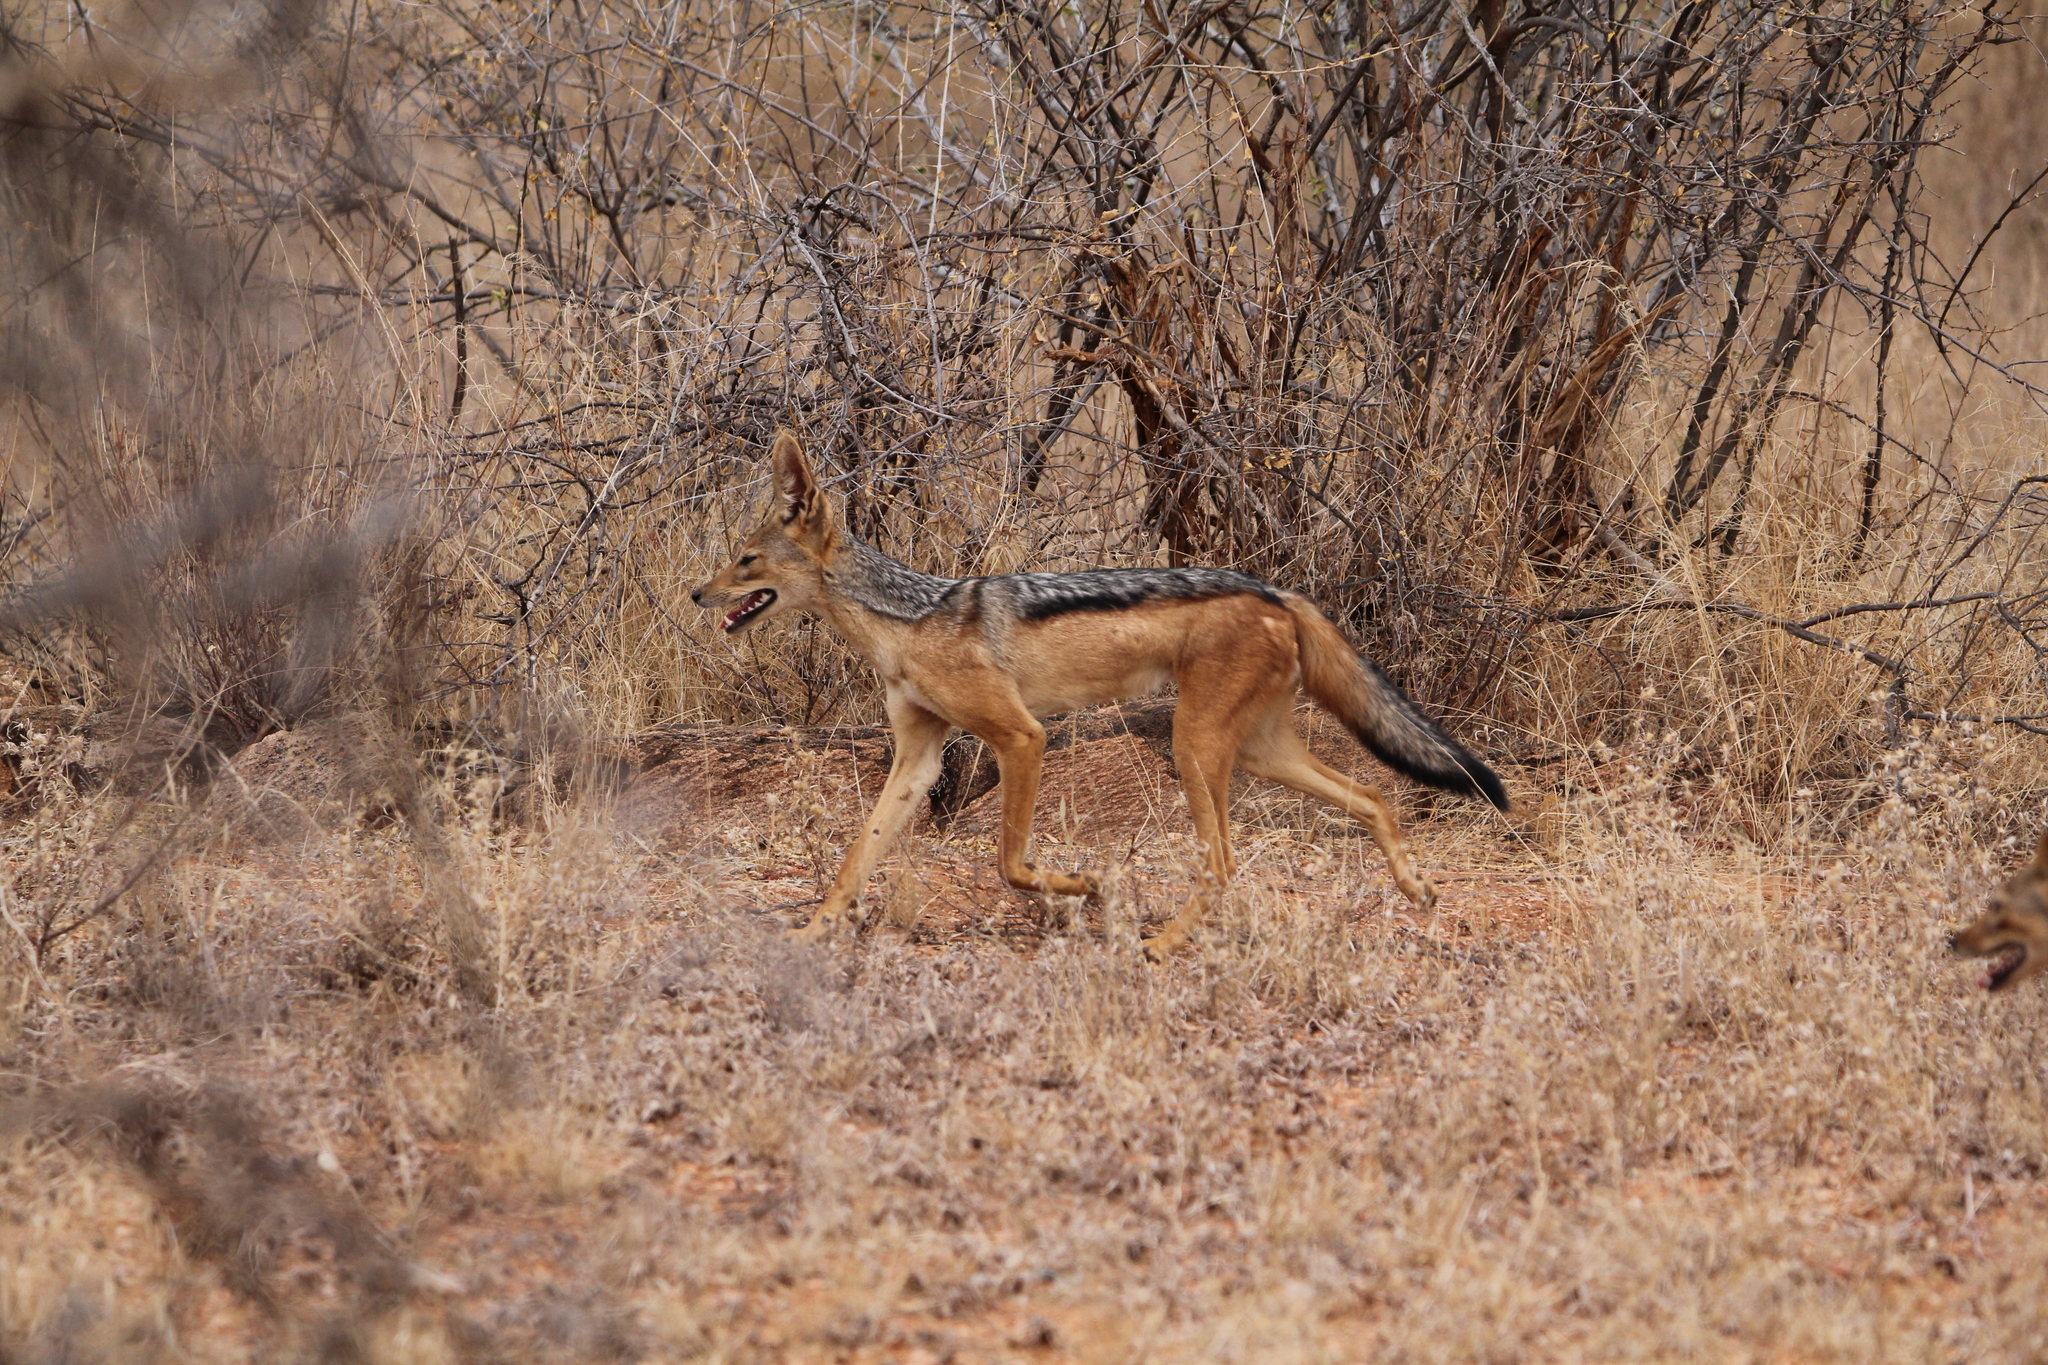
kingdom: Animalia
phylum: Chordata
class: Mammalia
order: Carnivora
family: Canidae
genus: Lupulella
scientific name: Lupulella
